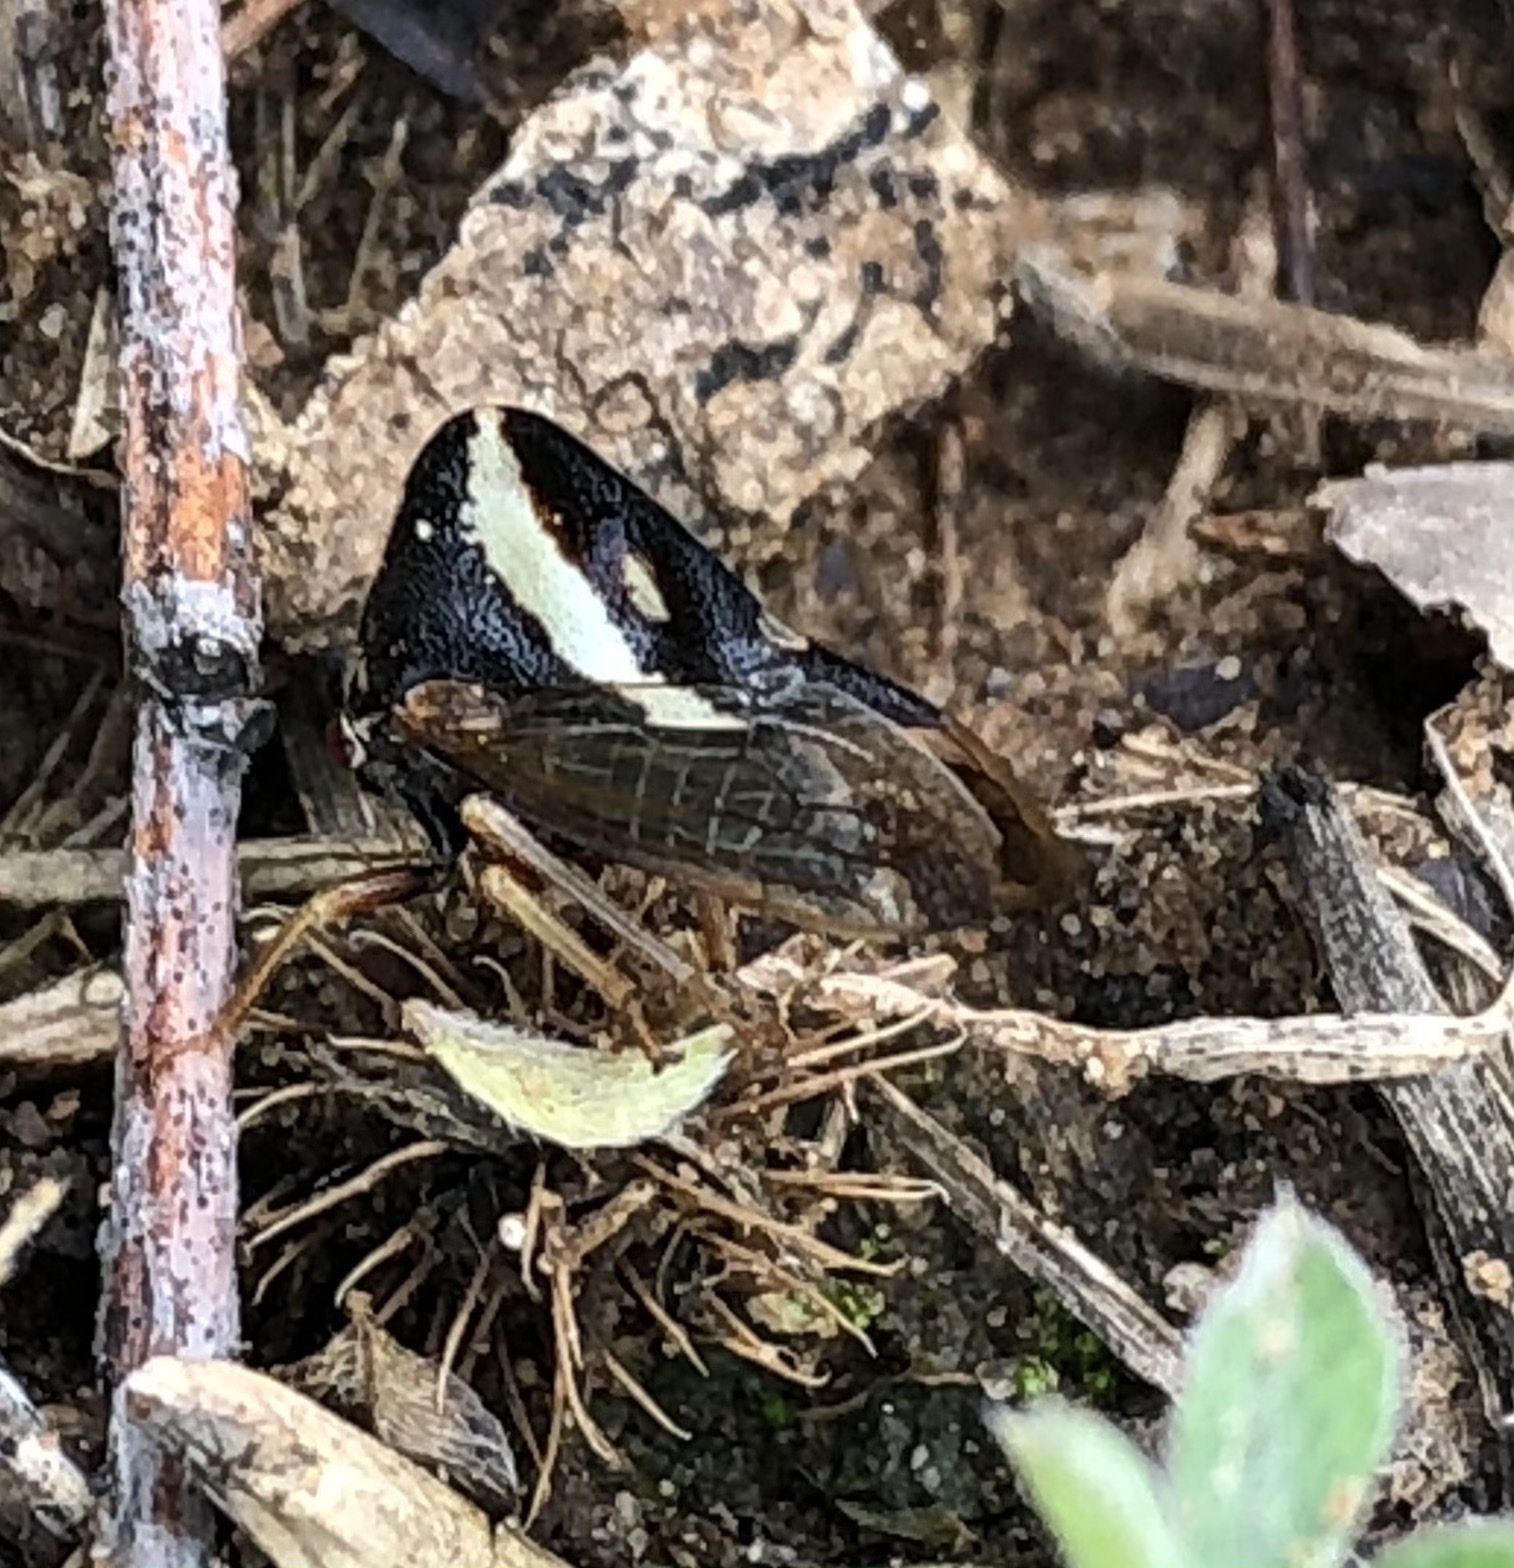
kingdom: Animalia
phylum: Arthropoda
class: Insecta
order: Hemiptera
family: Membracidae
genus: Smilia
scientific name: Smilia camelus
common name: Camel treehopper
